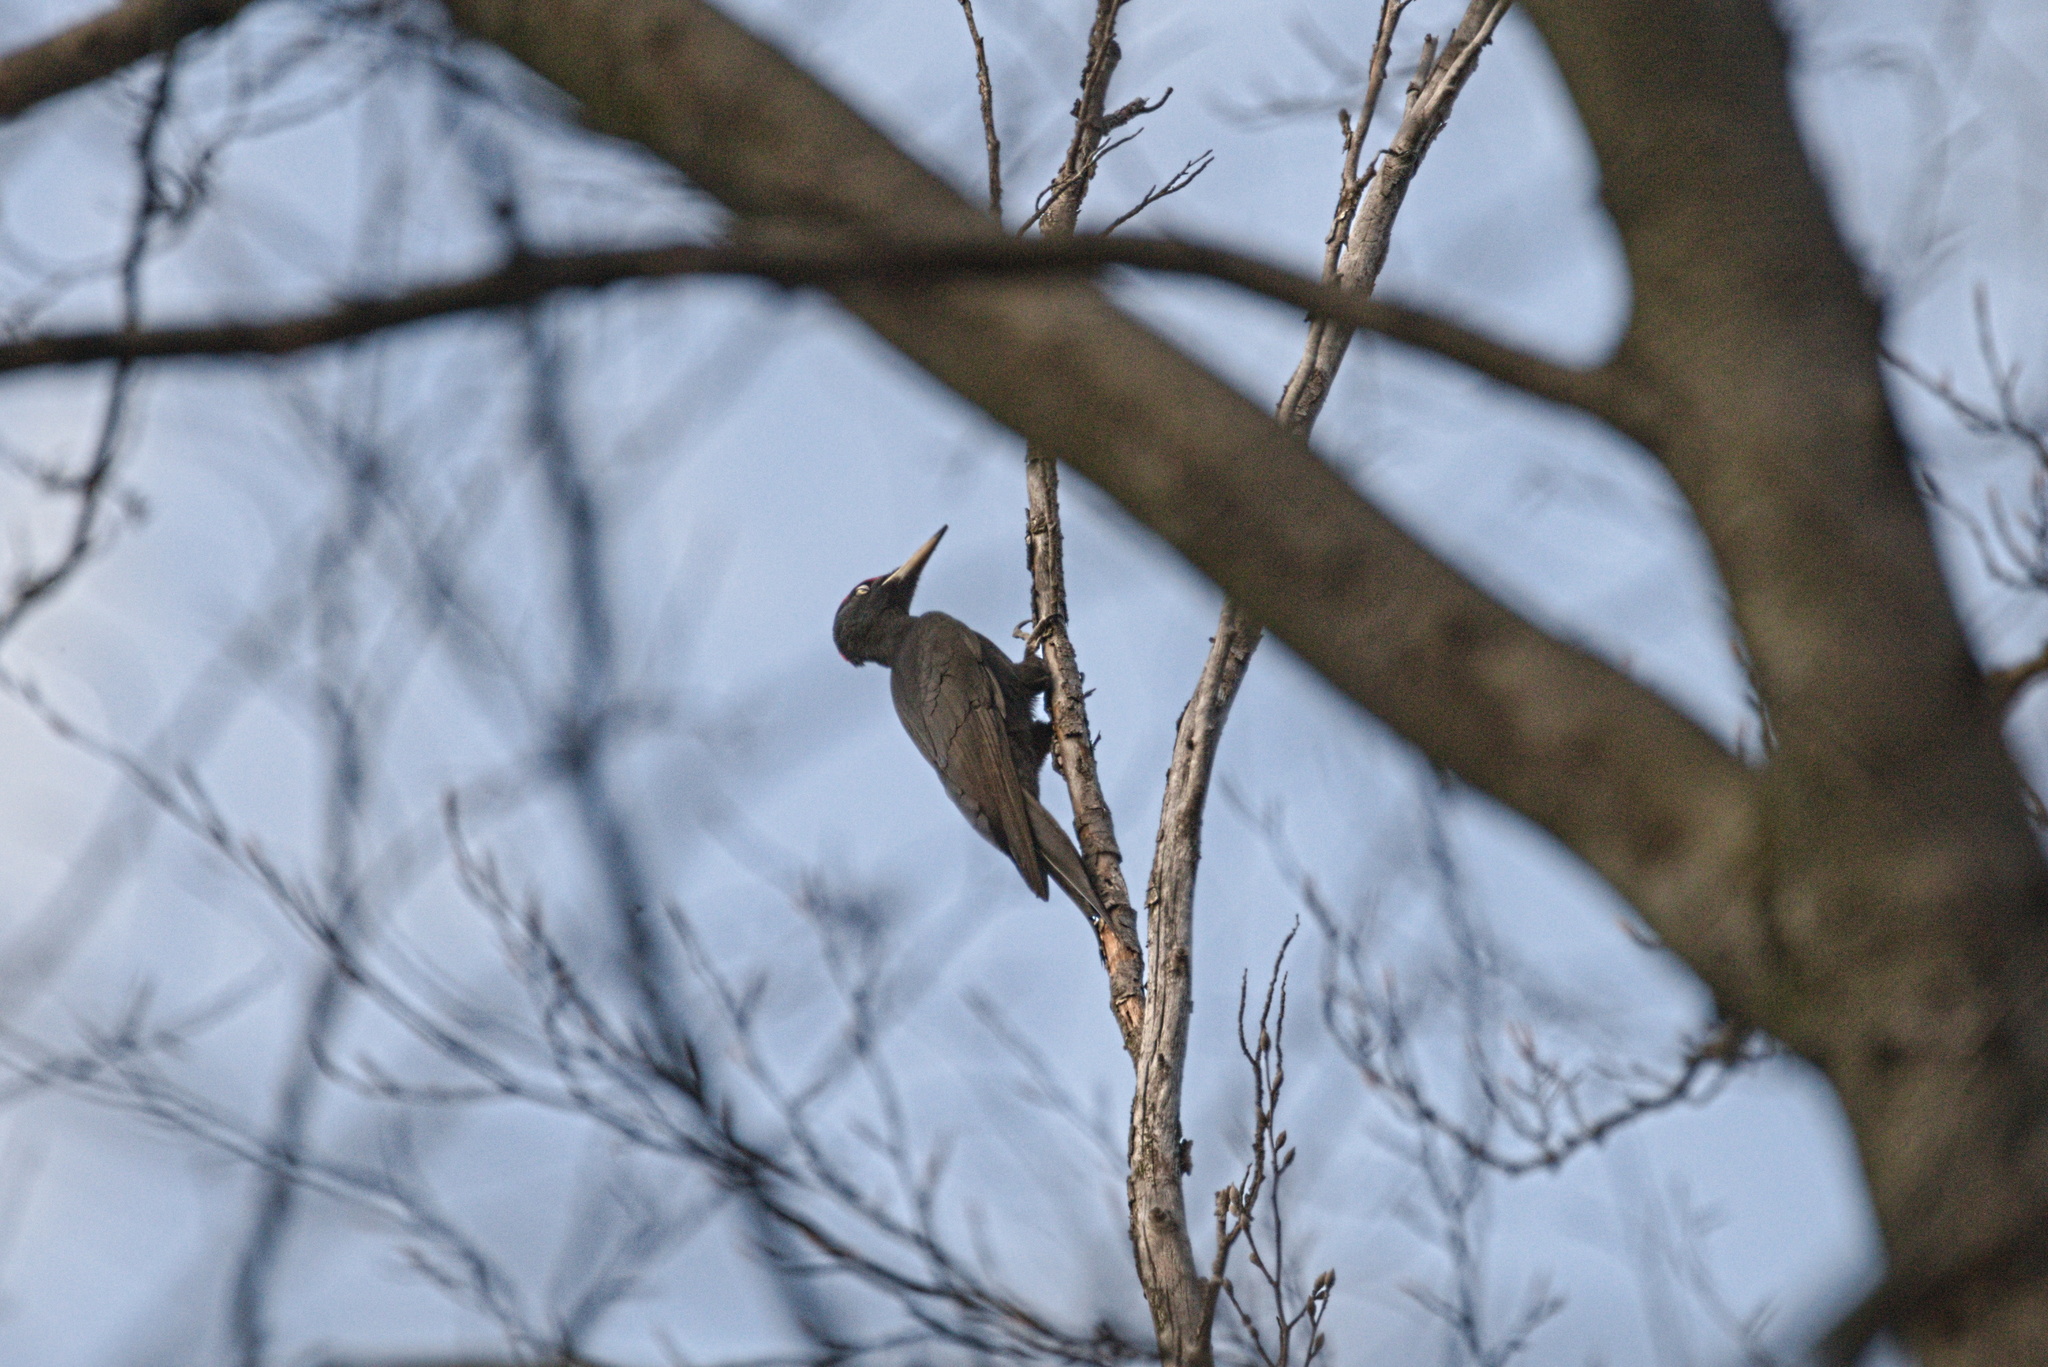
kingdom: Animalia
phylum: Chordata
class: Aves
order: Piciformes
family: Picidae
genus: Dryocopus
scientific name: Dryocopus martius
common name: Black woodpecker
